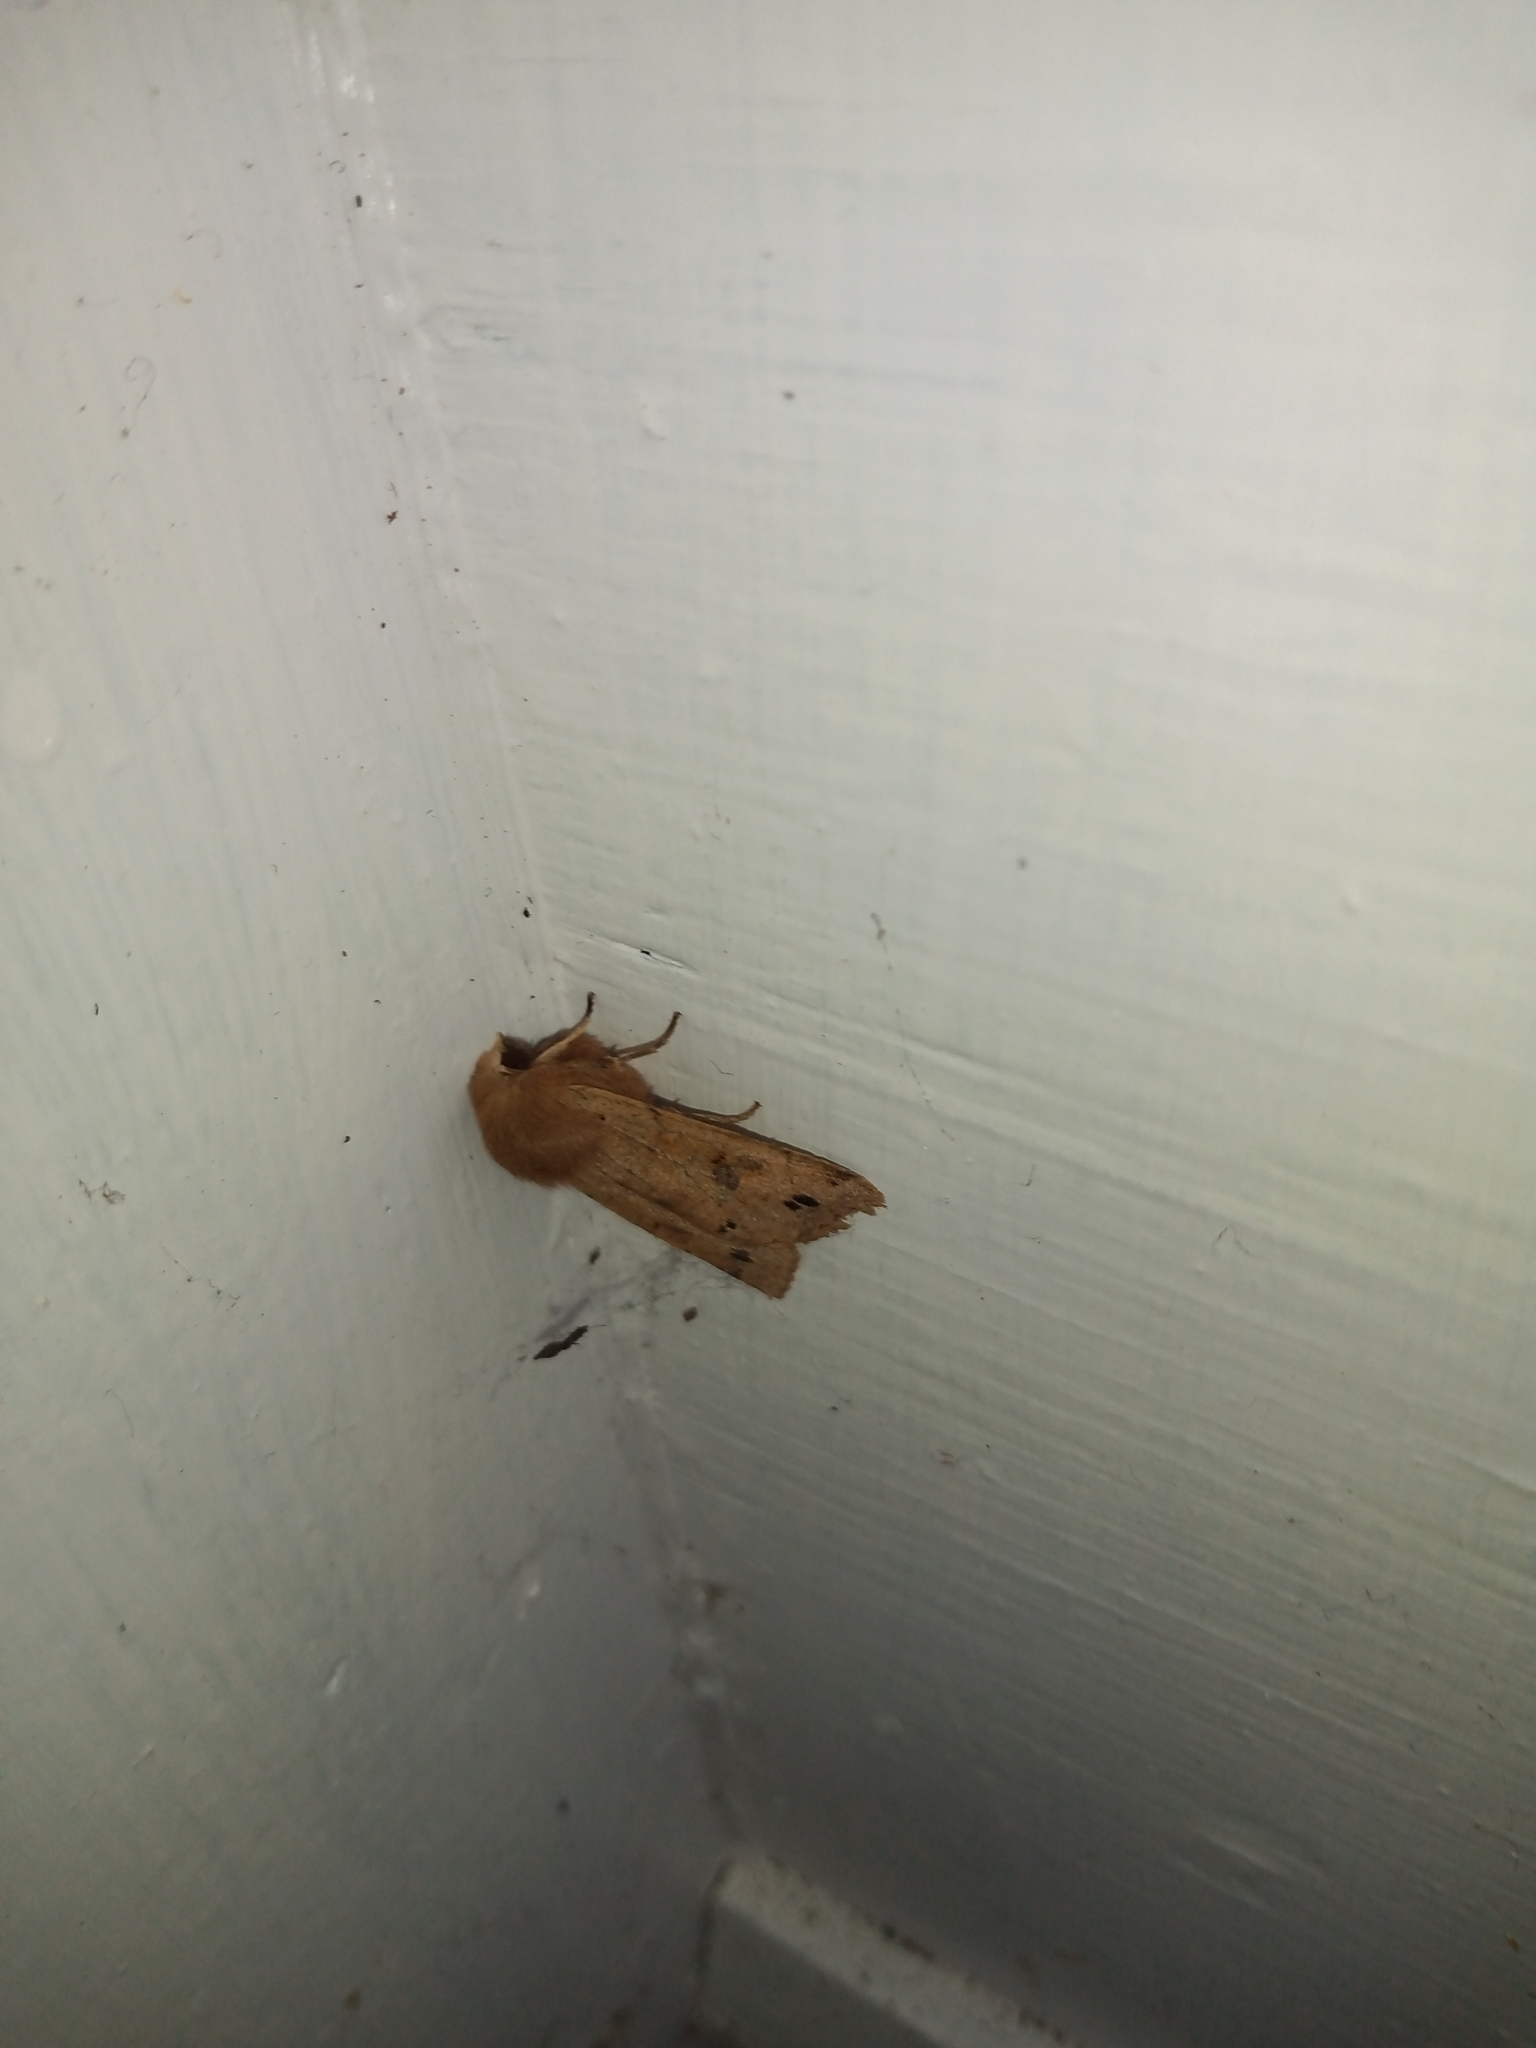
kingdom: Animalia
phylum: Arthropoda
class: Insecta
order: Lepidoptera
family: Noctuidae
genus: Anorthoa
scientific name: Anorthoa munda
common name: Twin-spotted quaker
